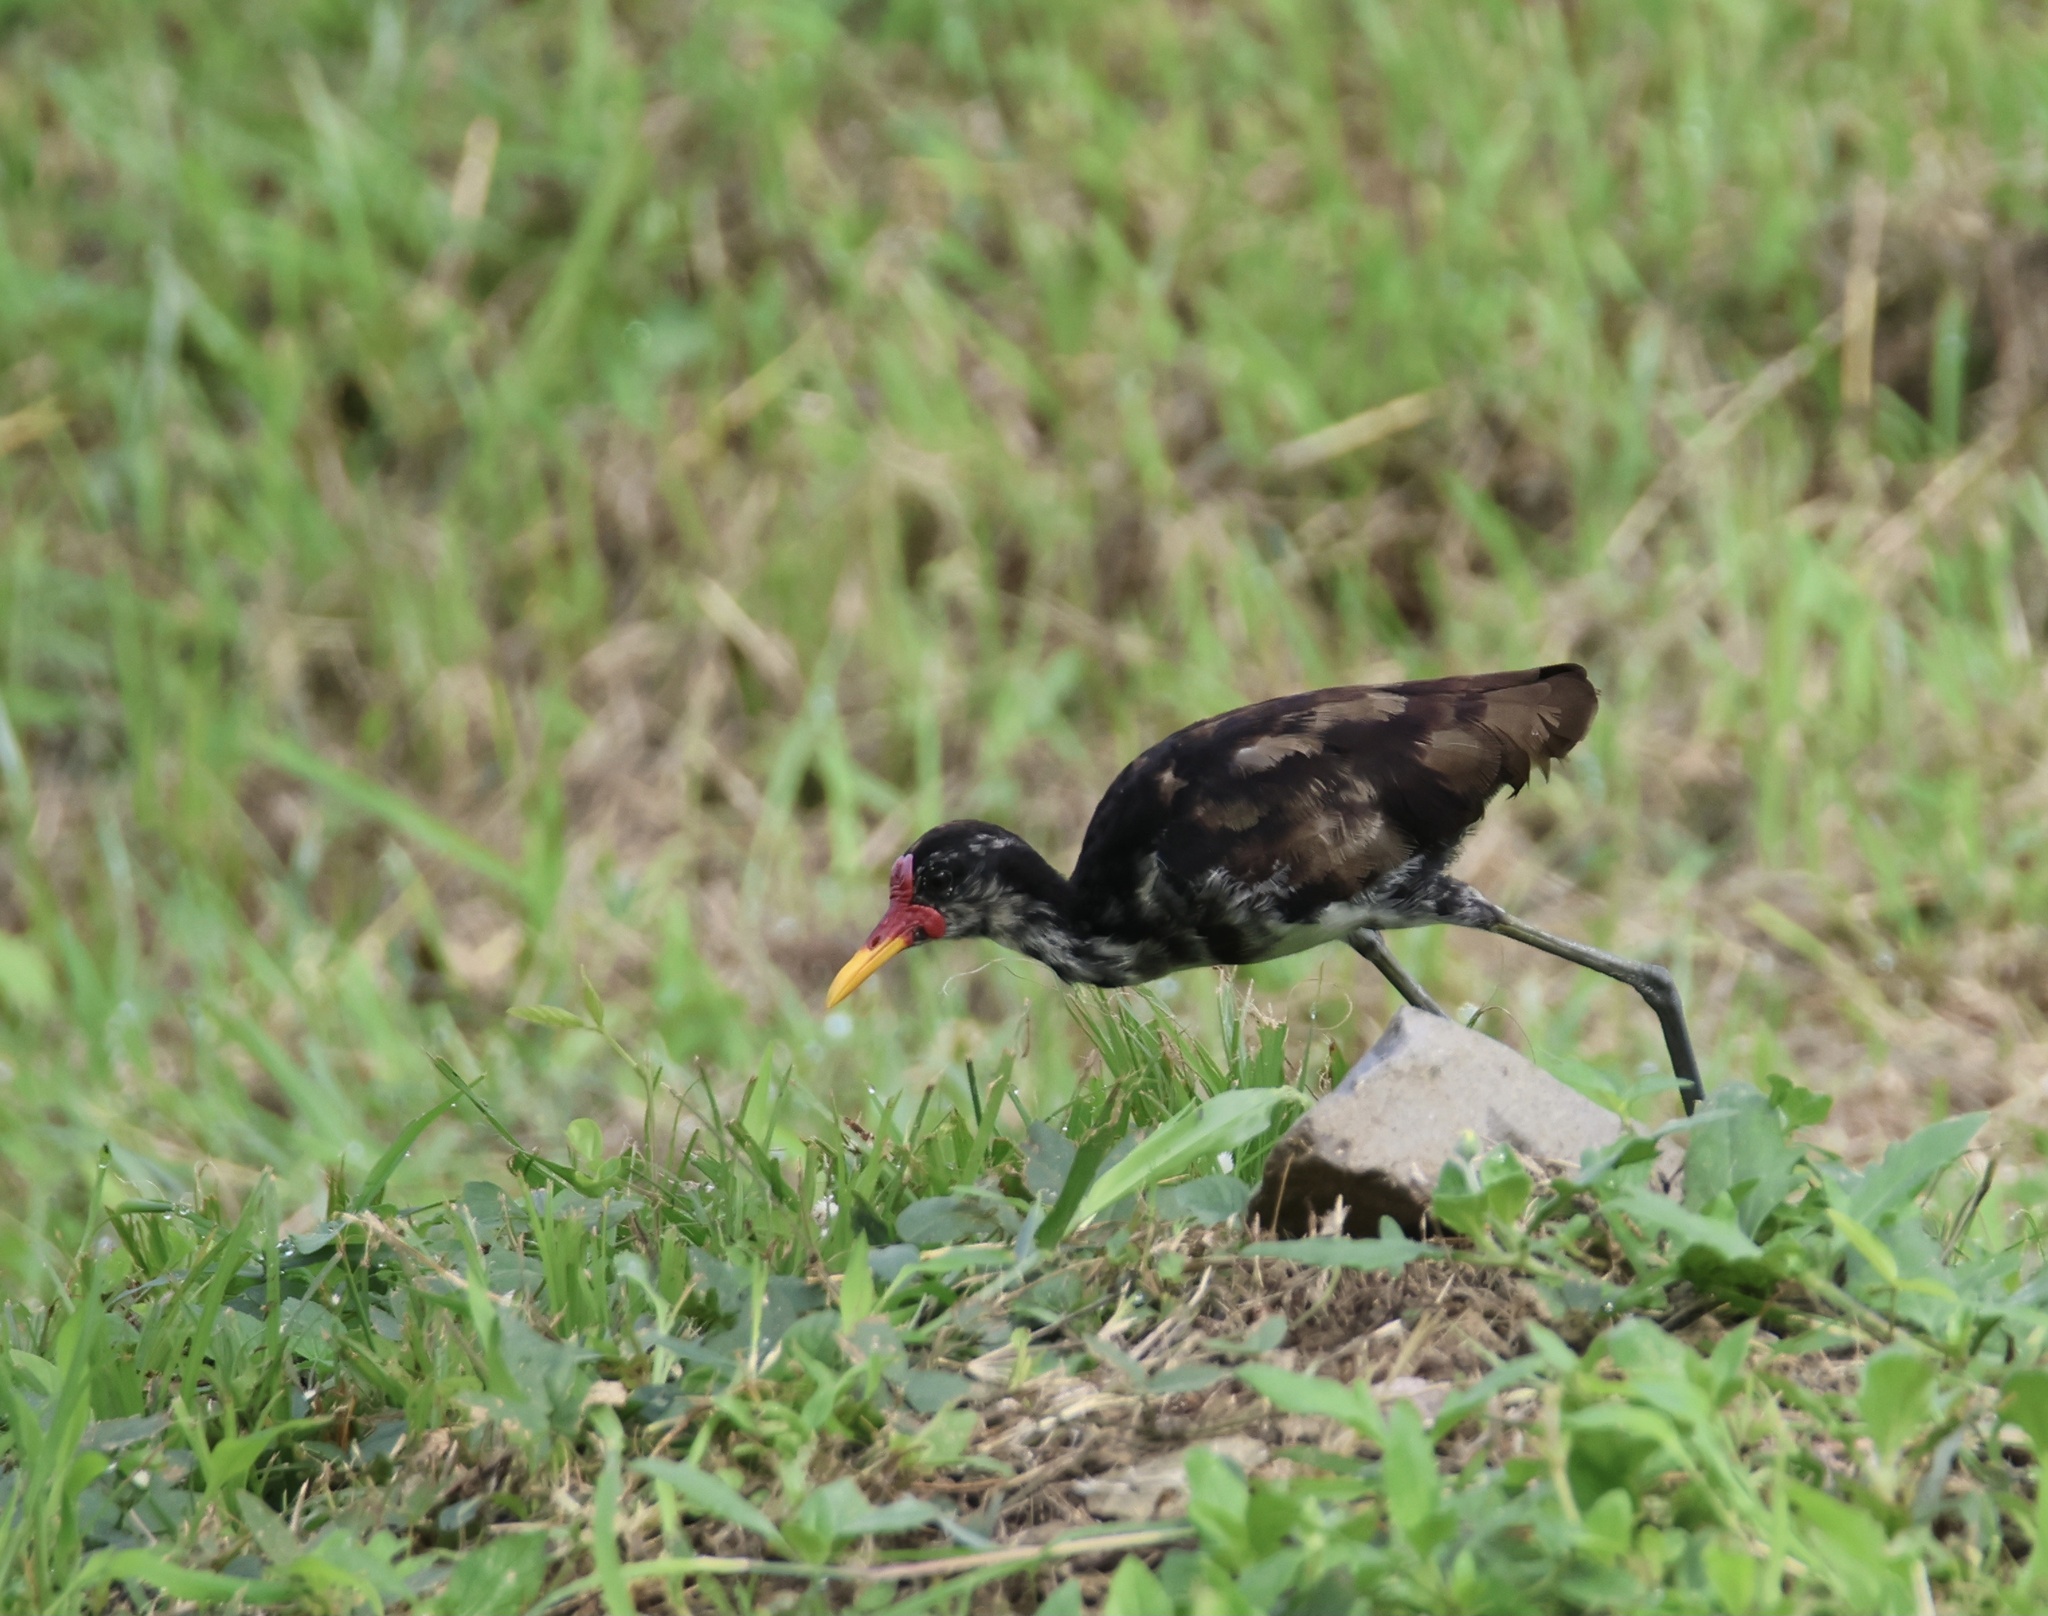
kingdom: Animalia
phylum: Chordata
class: Aves
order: Charadriiformes
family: Jacanidae
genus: Jacana
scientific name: Jacana jacana
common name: Wattled jacana
